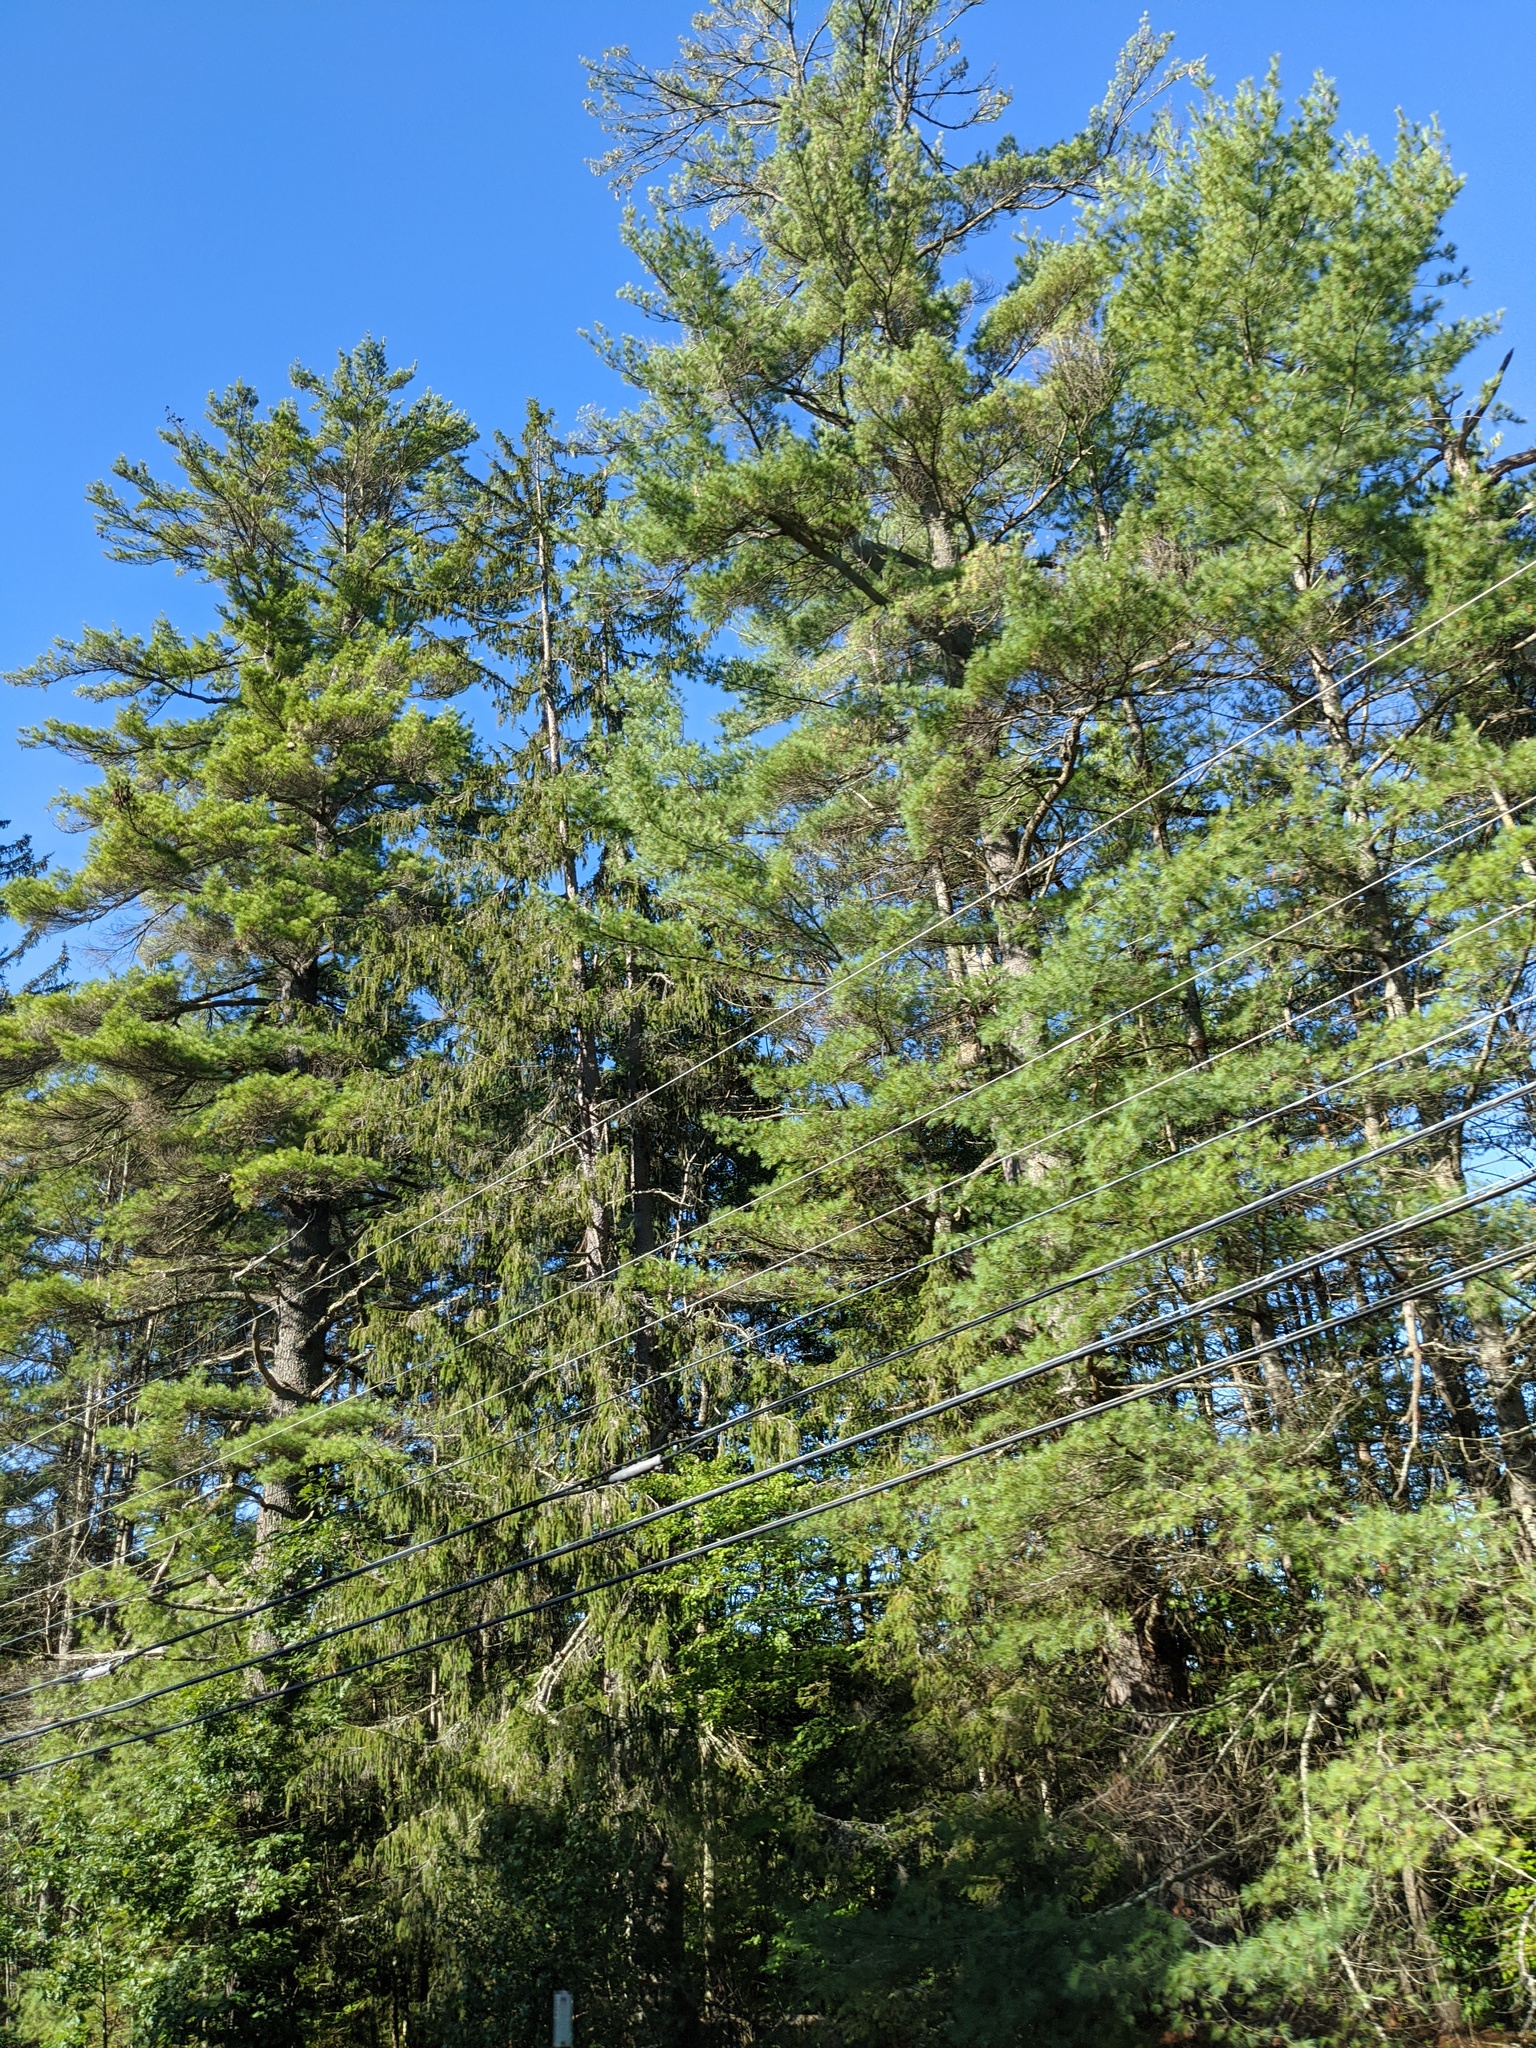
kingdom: Plantae
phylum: Tracheophyta
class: Pinopsida
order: Pinales
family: Pinaceae
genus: Picea
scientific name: Picea abies
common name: Norway spruce
